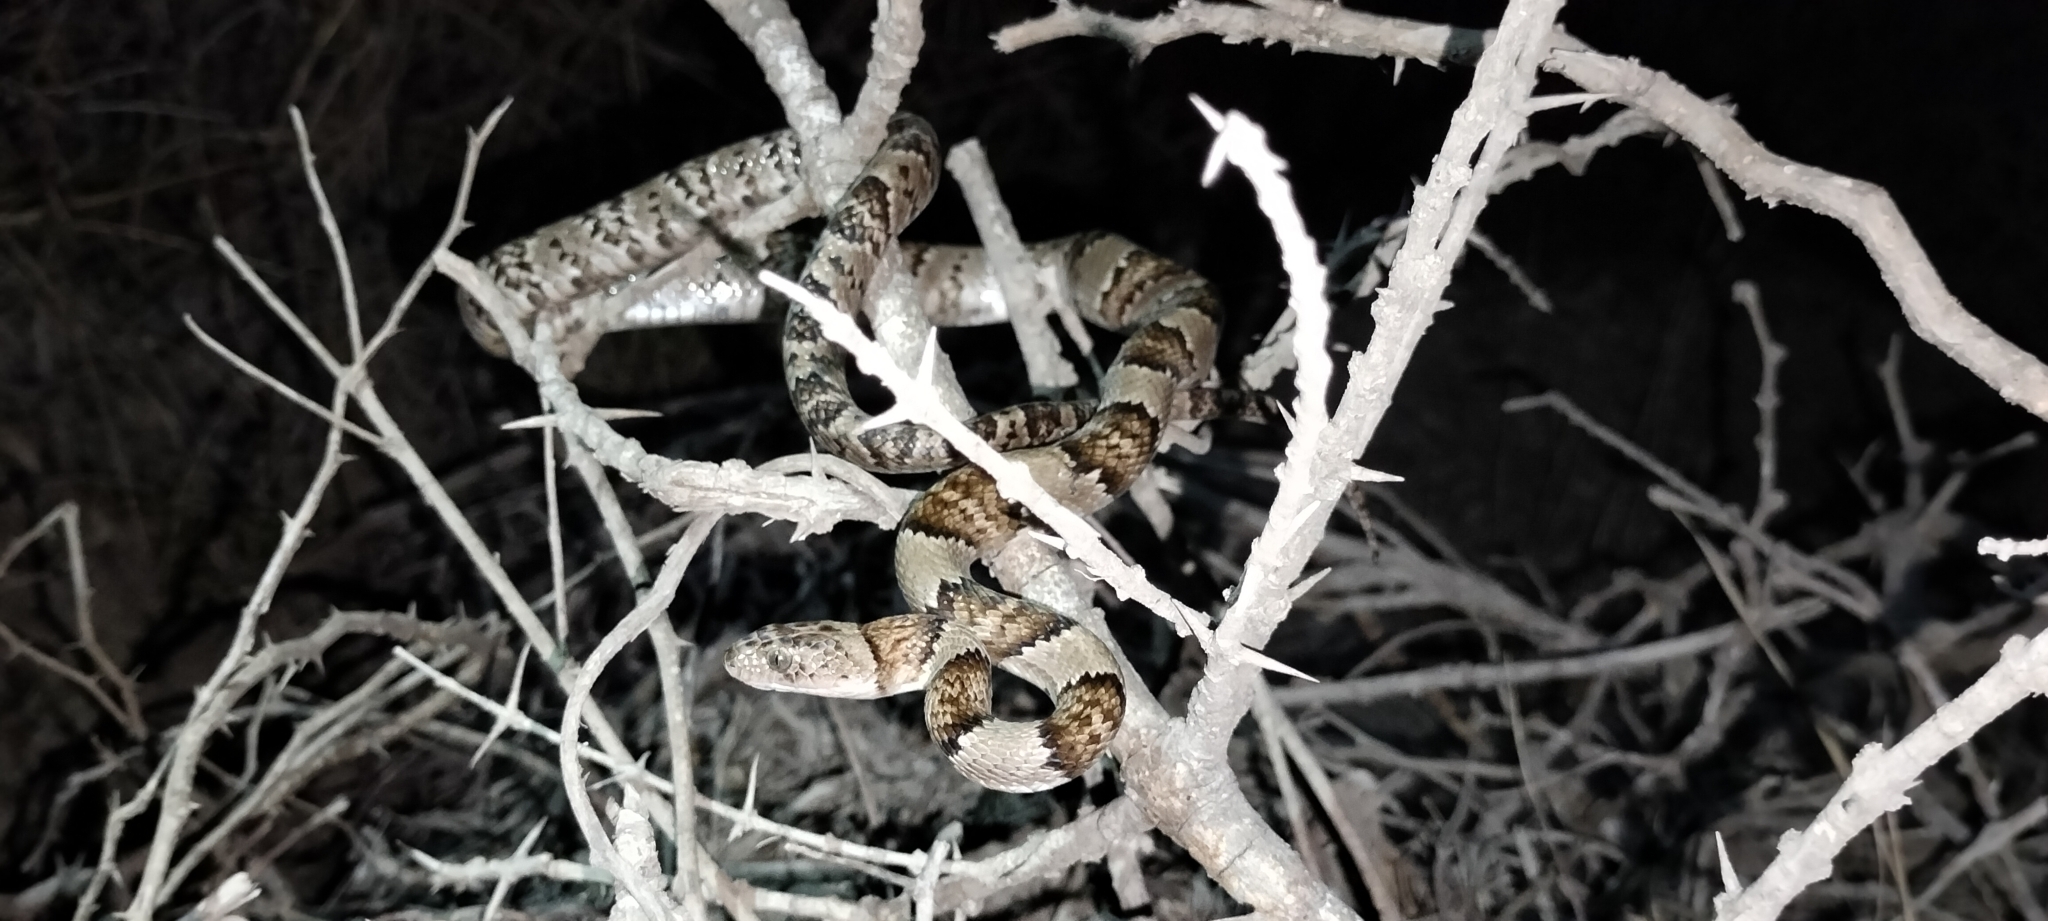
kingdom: Animalia
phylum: Chordata
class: Squamata
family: Colubridae
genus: Trimorphodon
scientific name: Trimorphodon tau
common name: Mexican lyre snake
